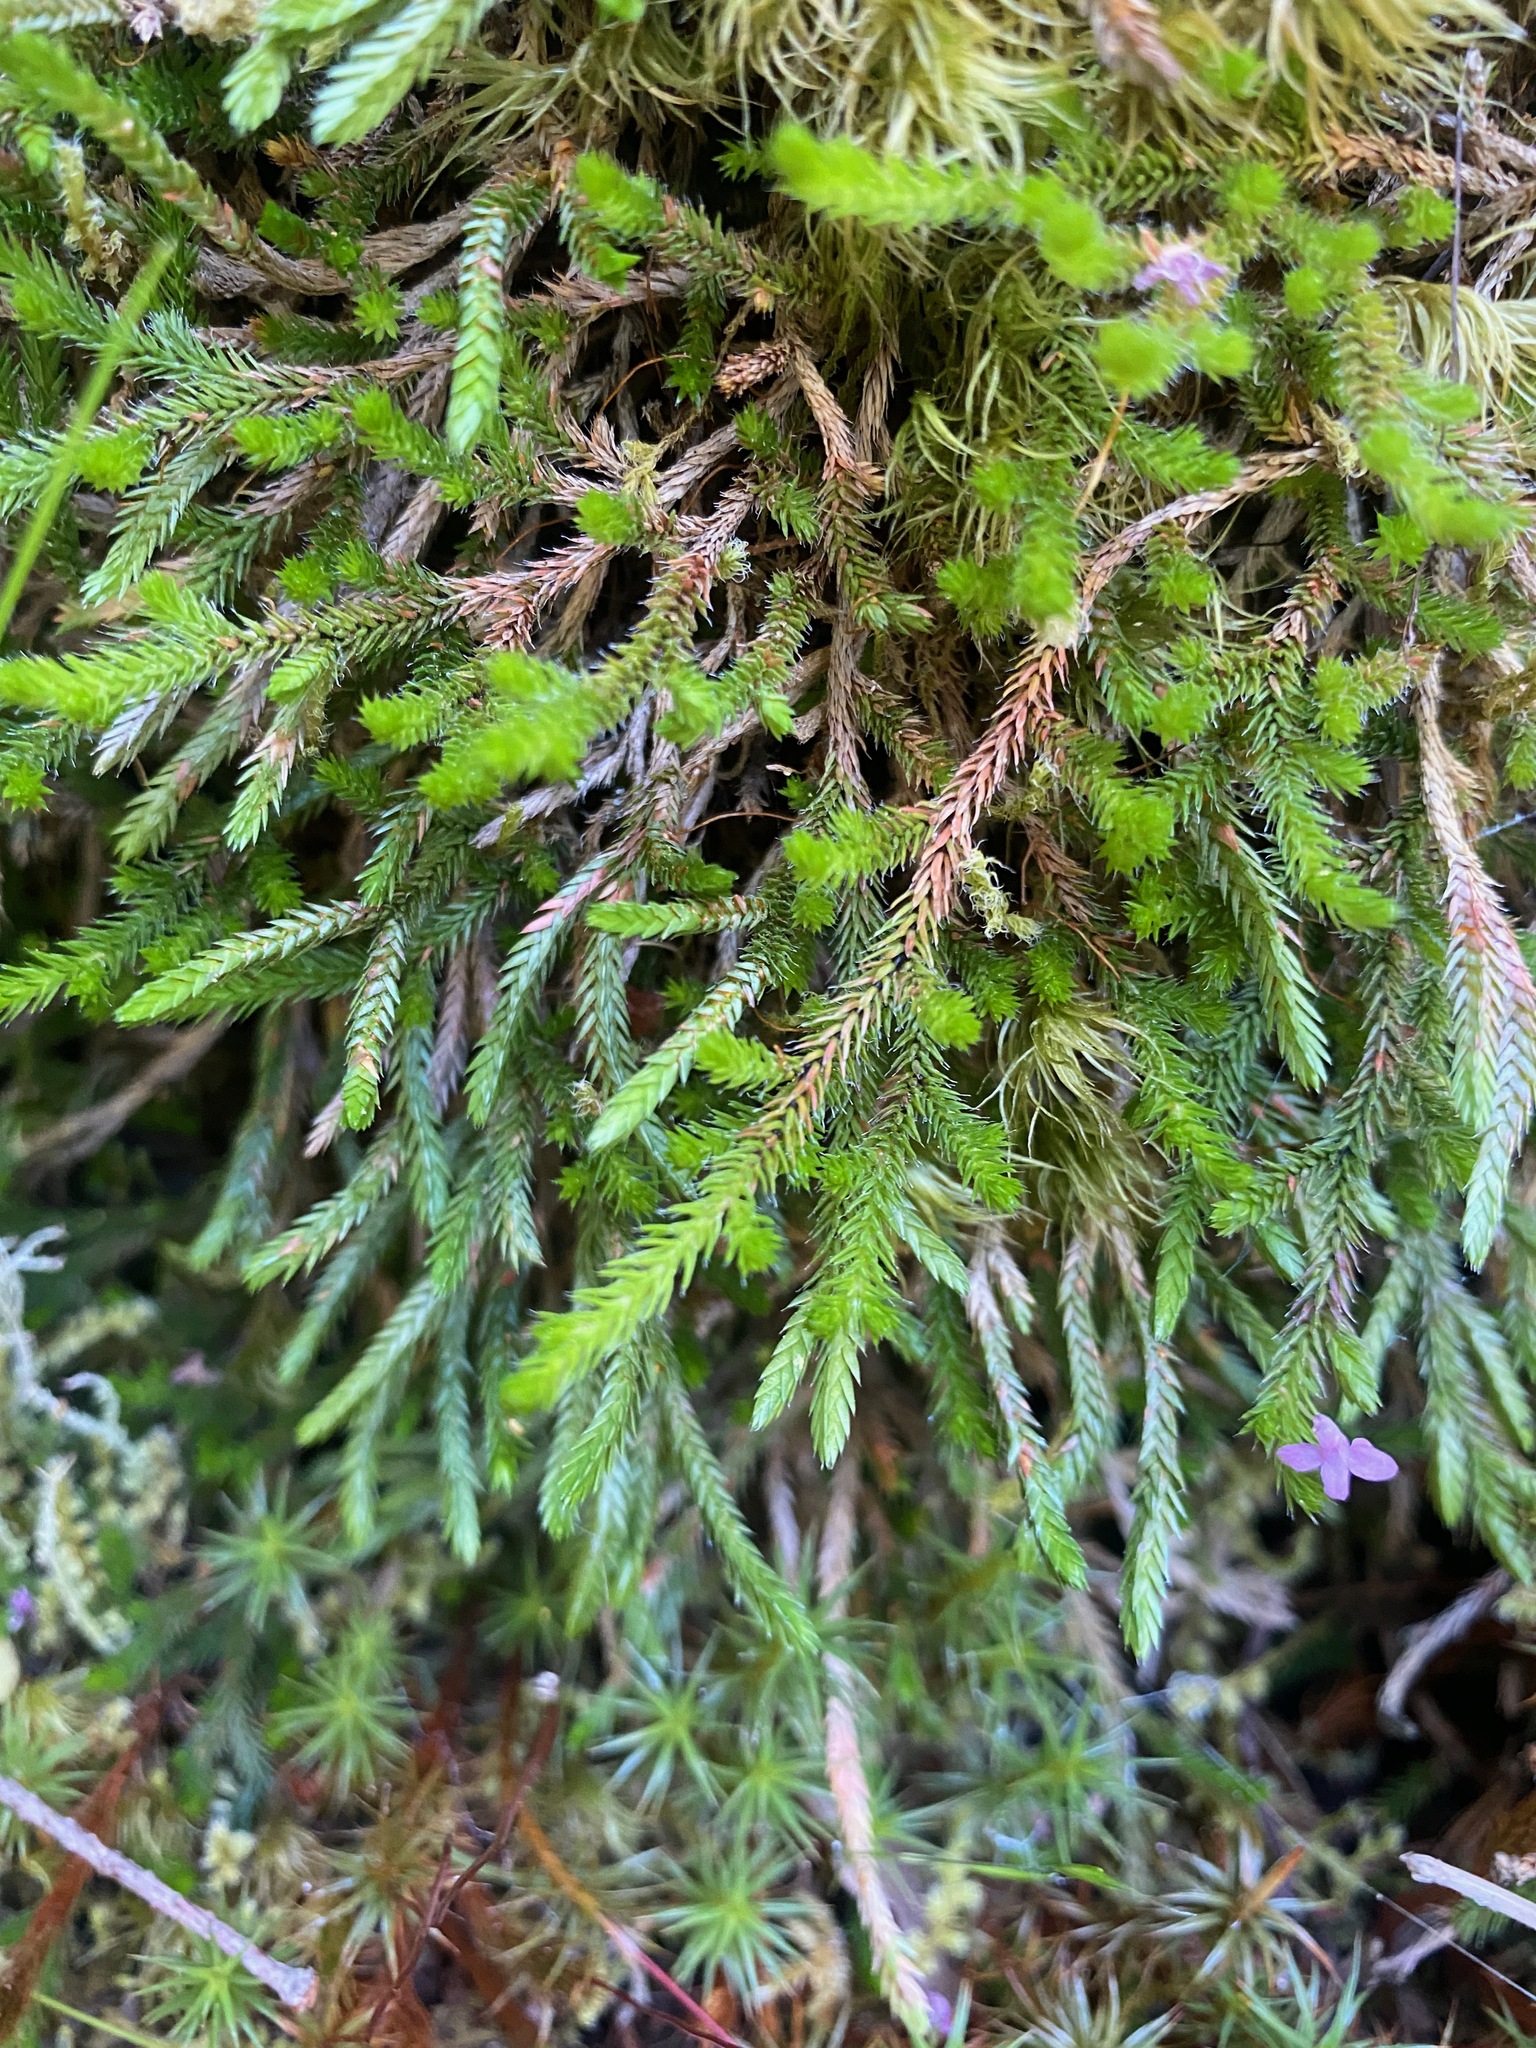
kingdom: Plantae
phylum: Tracheophyta
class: Lycopodiopsida
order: Selaginellales
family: Selaginellaceae
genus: Selaginella
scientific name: Selaginella wallacei
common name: Wallace's selaginella
